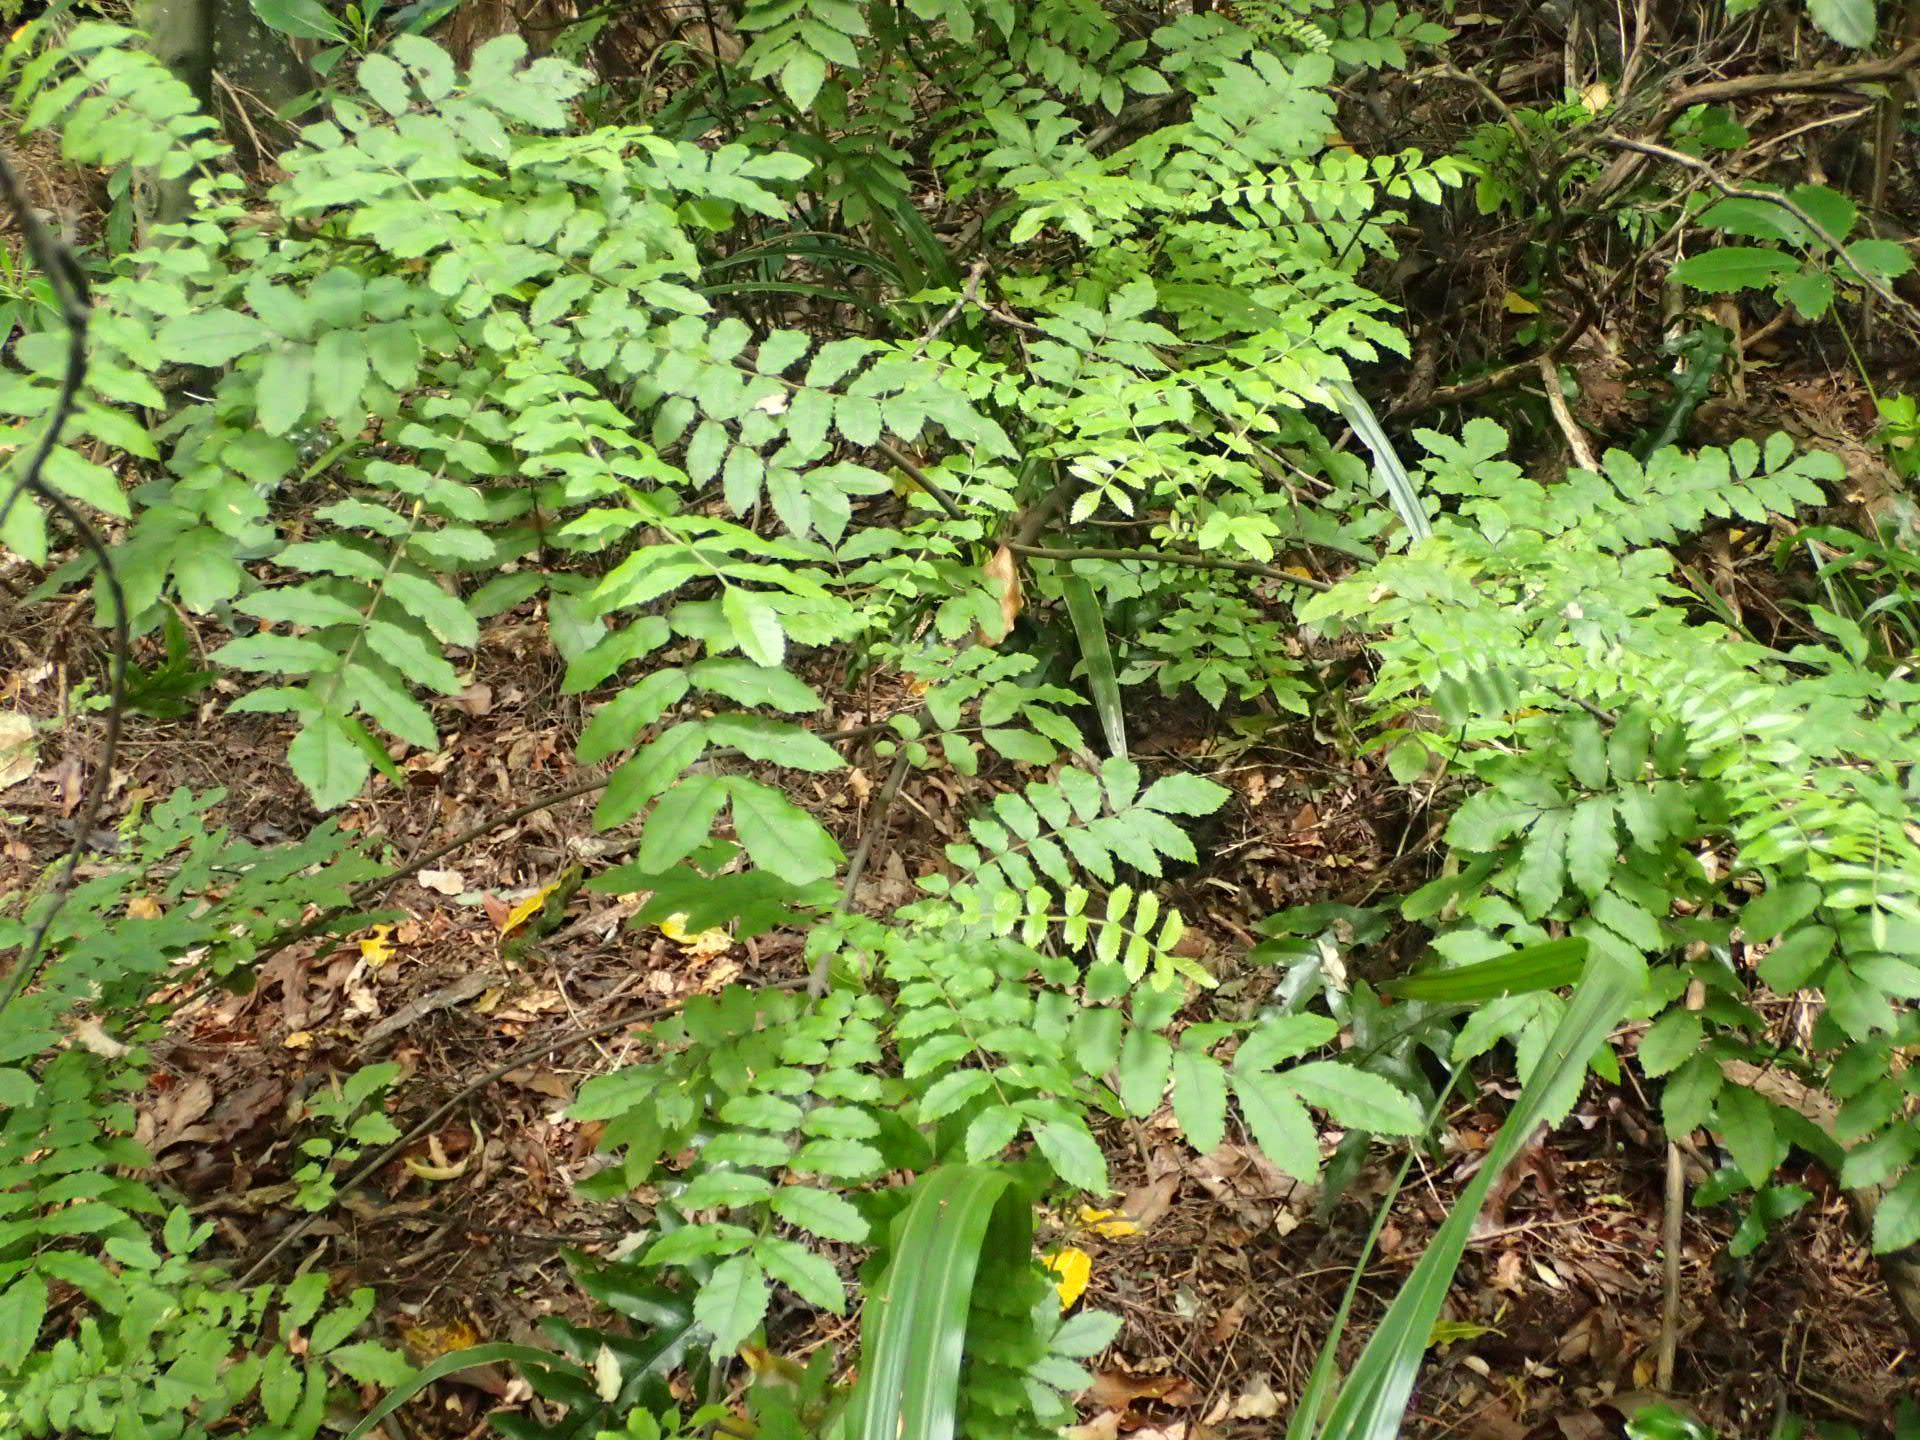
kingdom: Plantae
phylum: Tracheophyta
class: Magnoliopsida
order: Sapindales
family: Sapindaceae
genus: Alectryon
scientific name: Alectryon excelsus
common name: Three kings titoki
